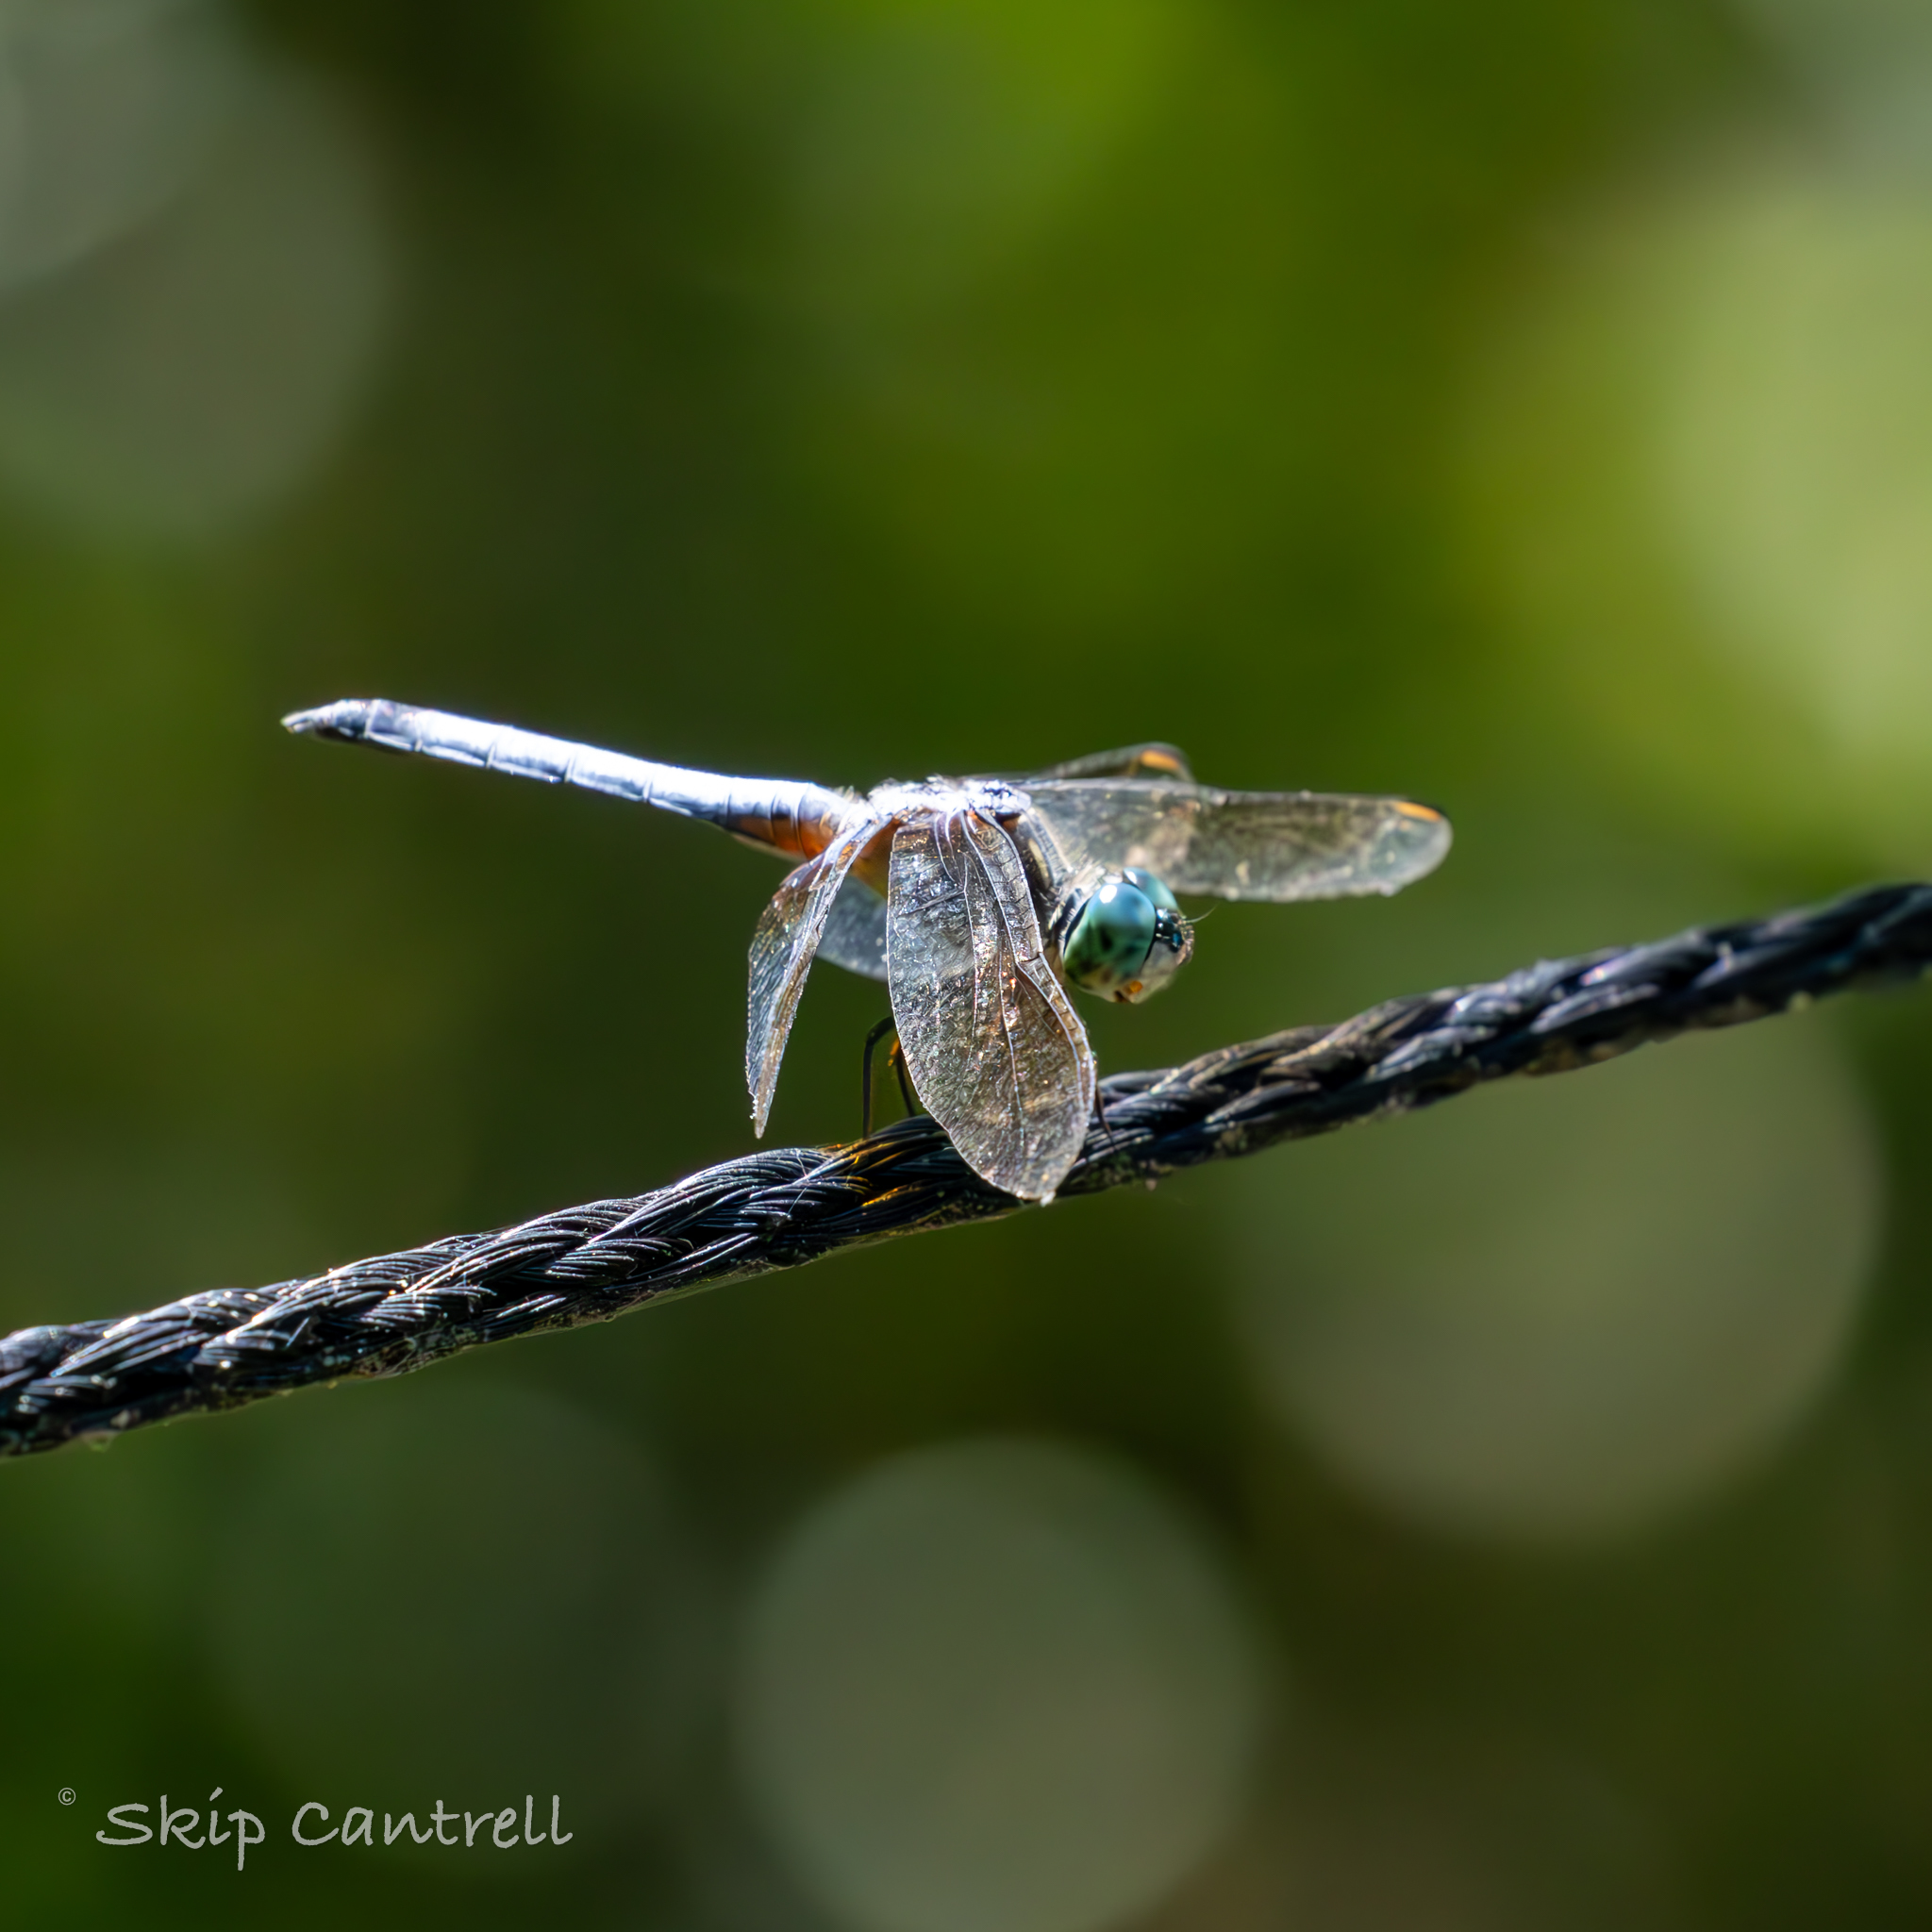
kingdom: Animalia
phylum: Arthropoda
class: Insecta
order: Odonata
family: Libellulidae
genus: Pachydiplax
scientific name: Pachydiplax longipennis
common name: Blue dasher
